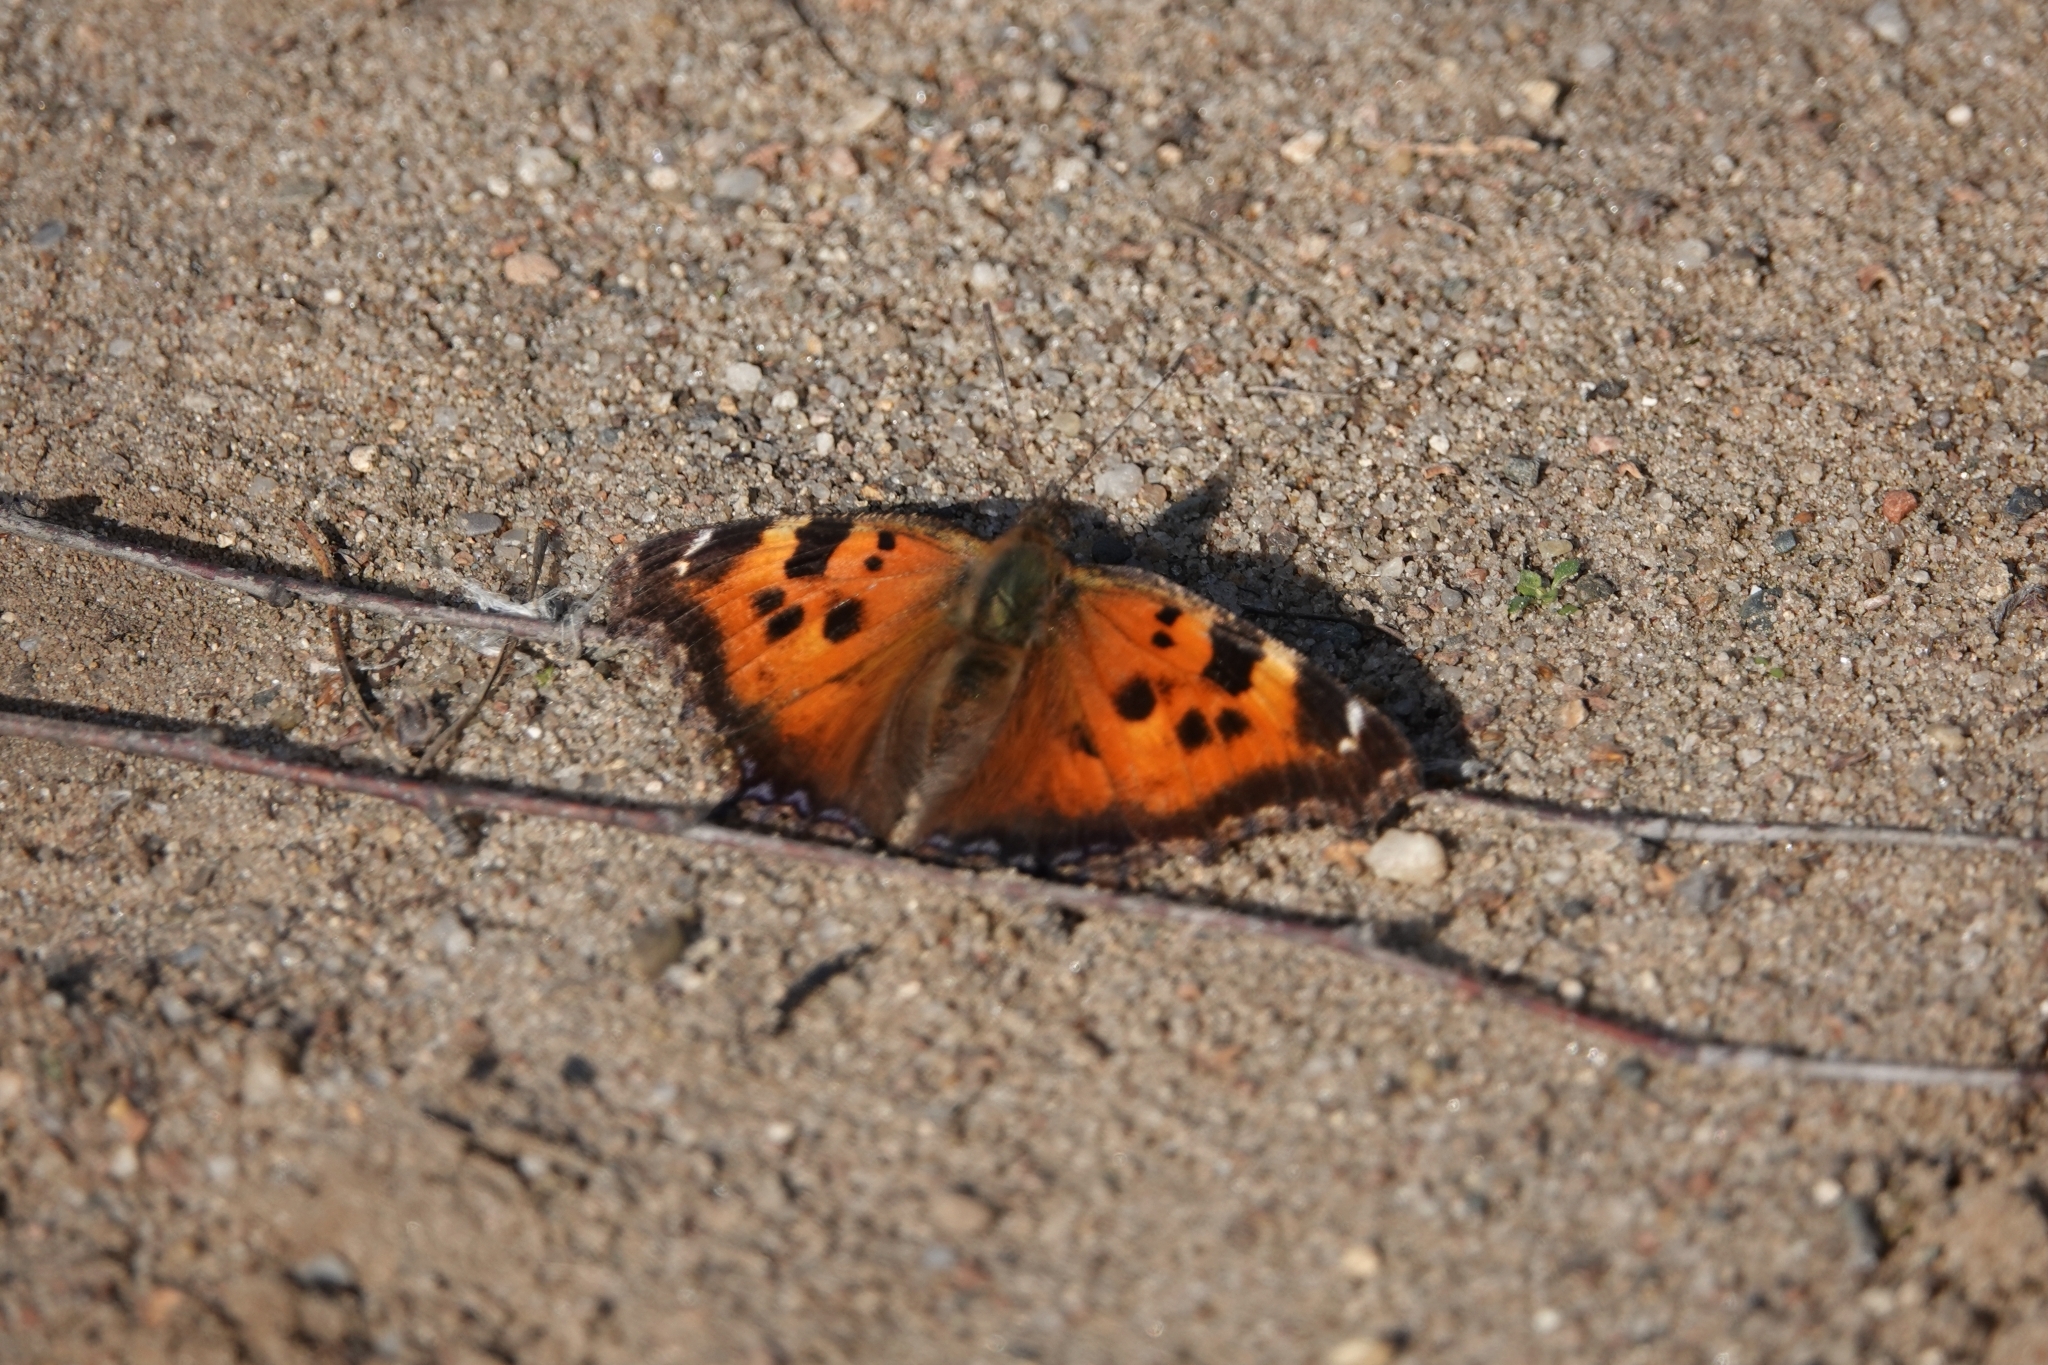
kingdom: Animalia
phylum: Arthropoda
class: Insecta
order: Lepidoptera
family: Nymphalidae
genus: Nymphalis
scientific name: Nymphalis xanthomelas
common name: Scarce tortoiseshell
